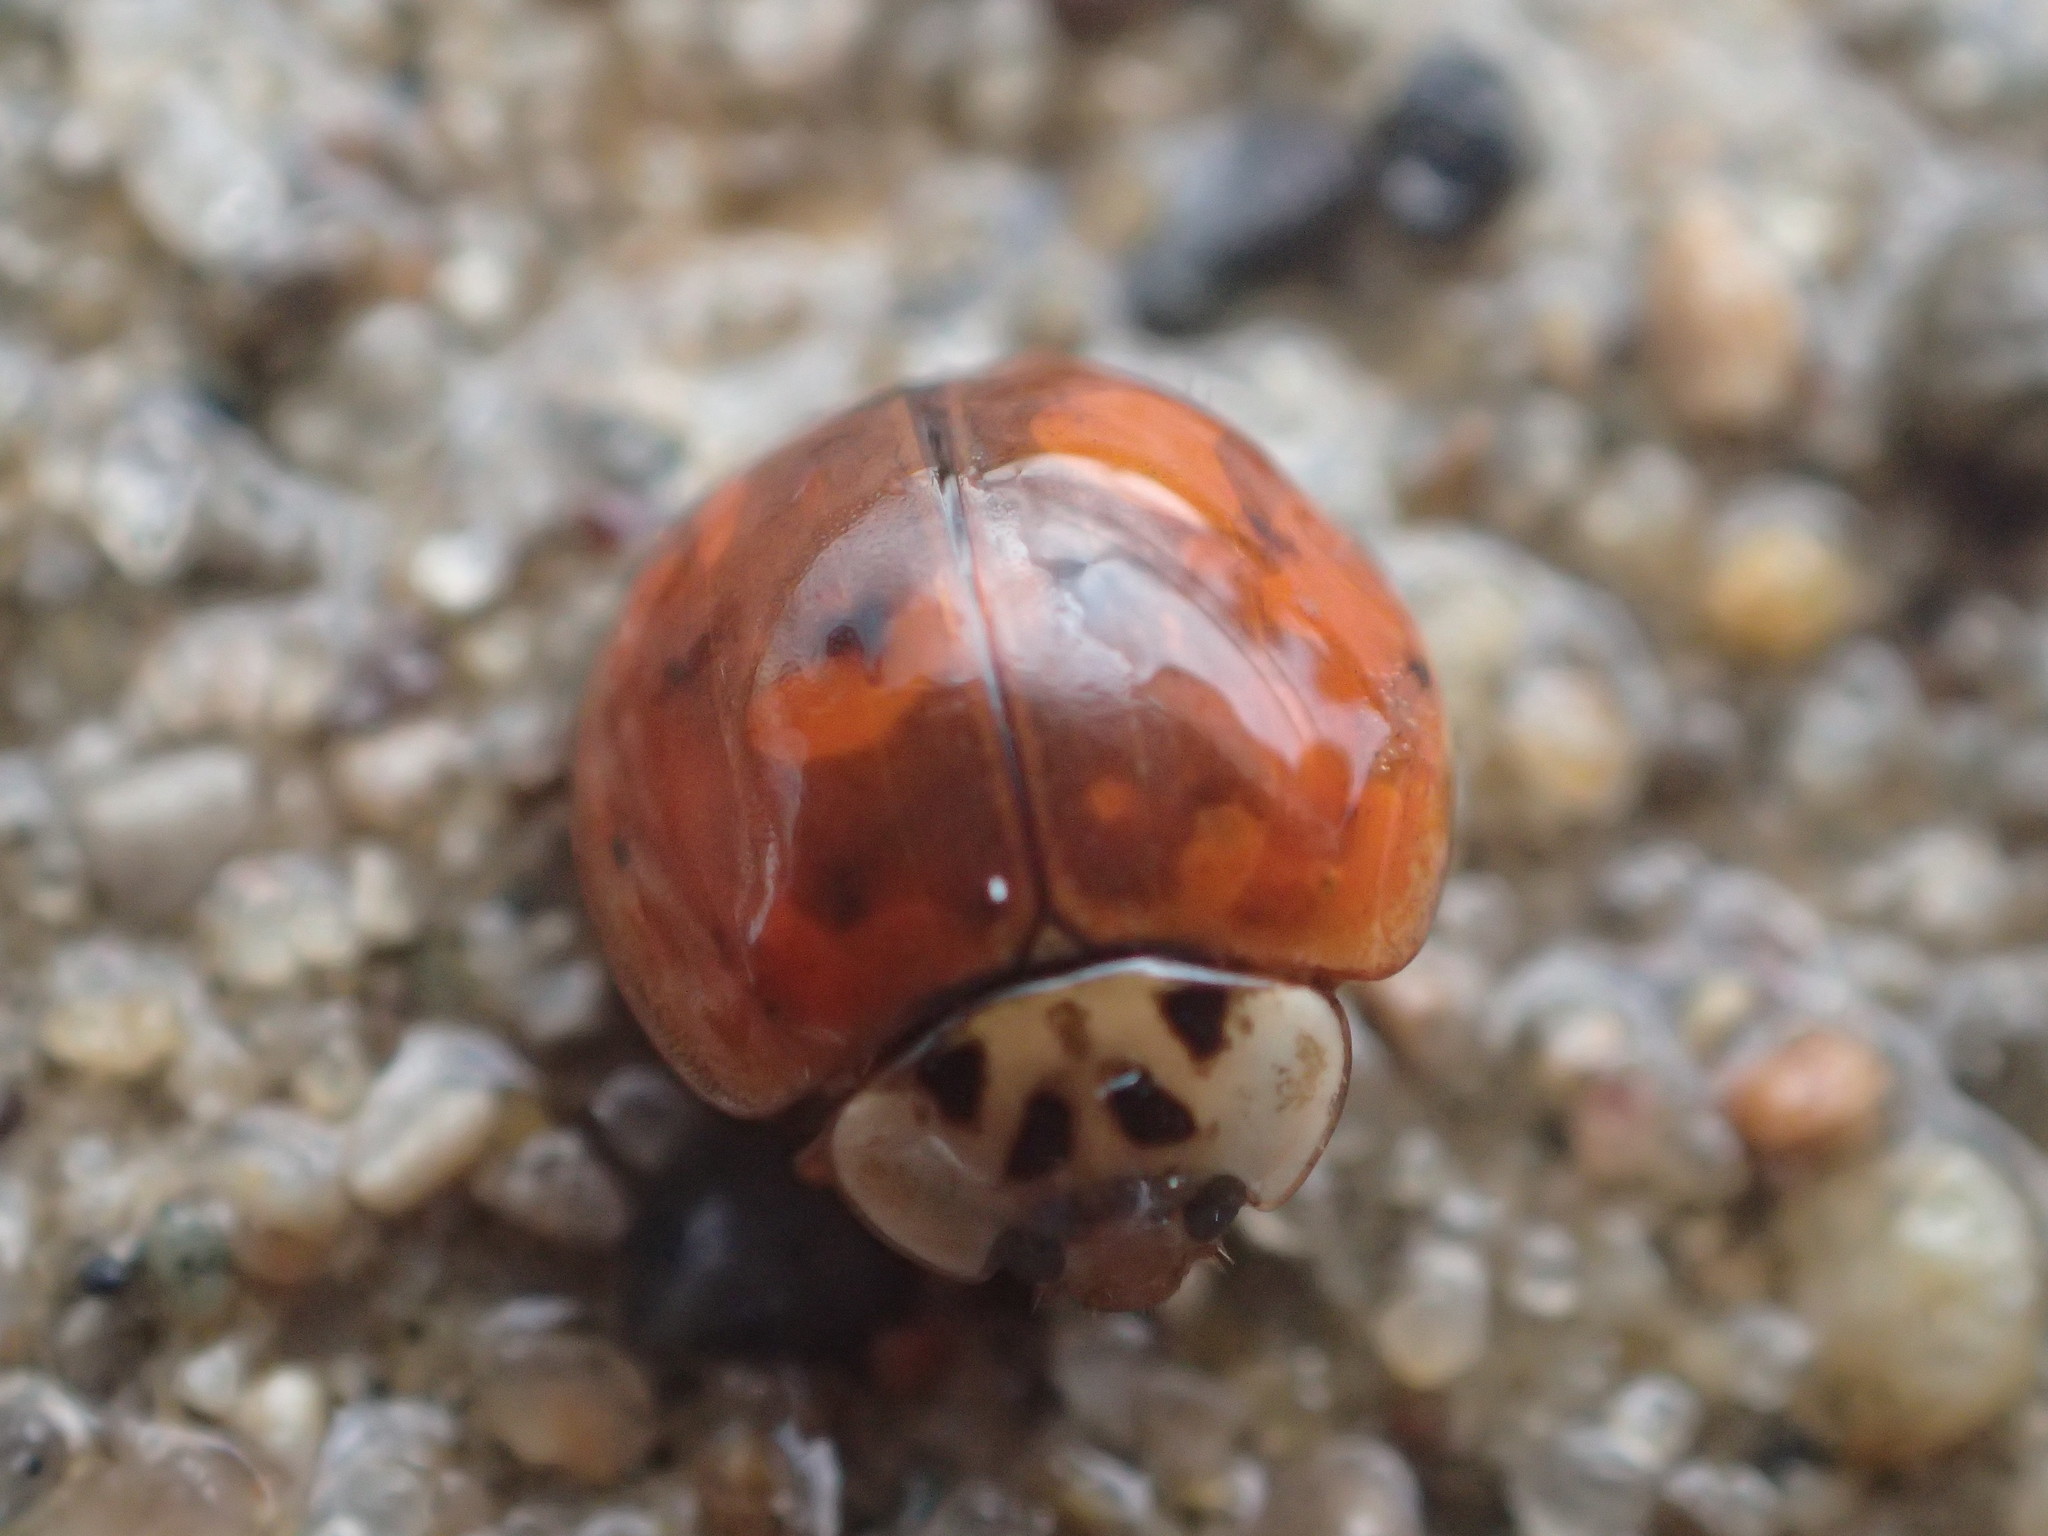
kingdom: Animalia
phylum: Arthropoda
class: Insecta
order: Coleoptera
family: Coccinellidae
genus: Harmonia
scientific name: Harmonia axyridis
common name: Harlequin ladybird
